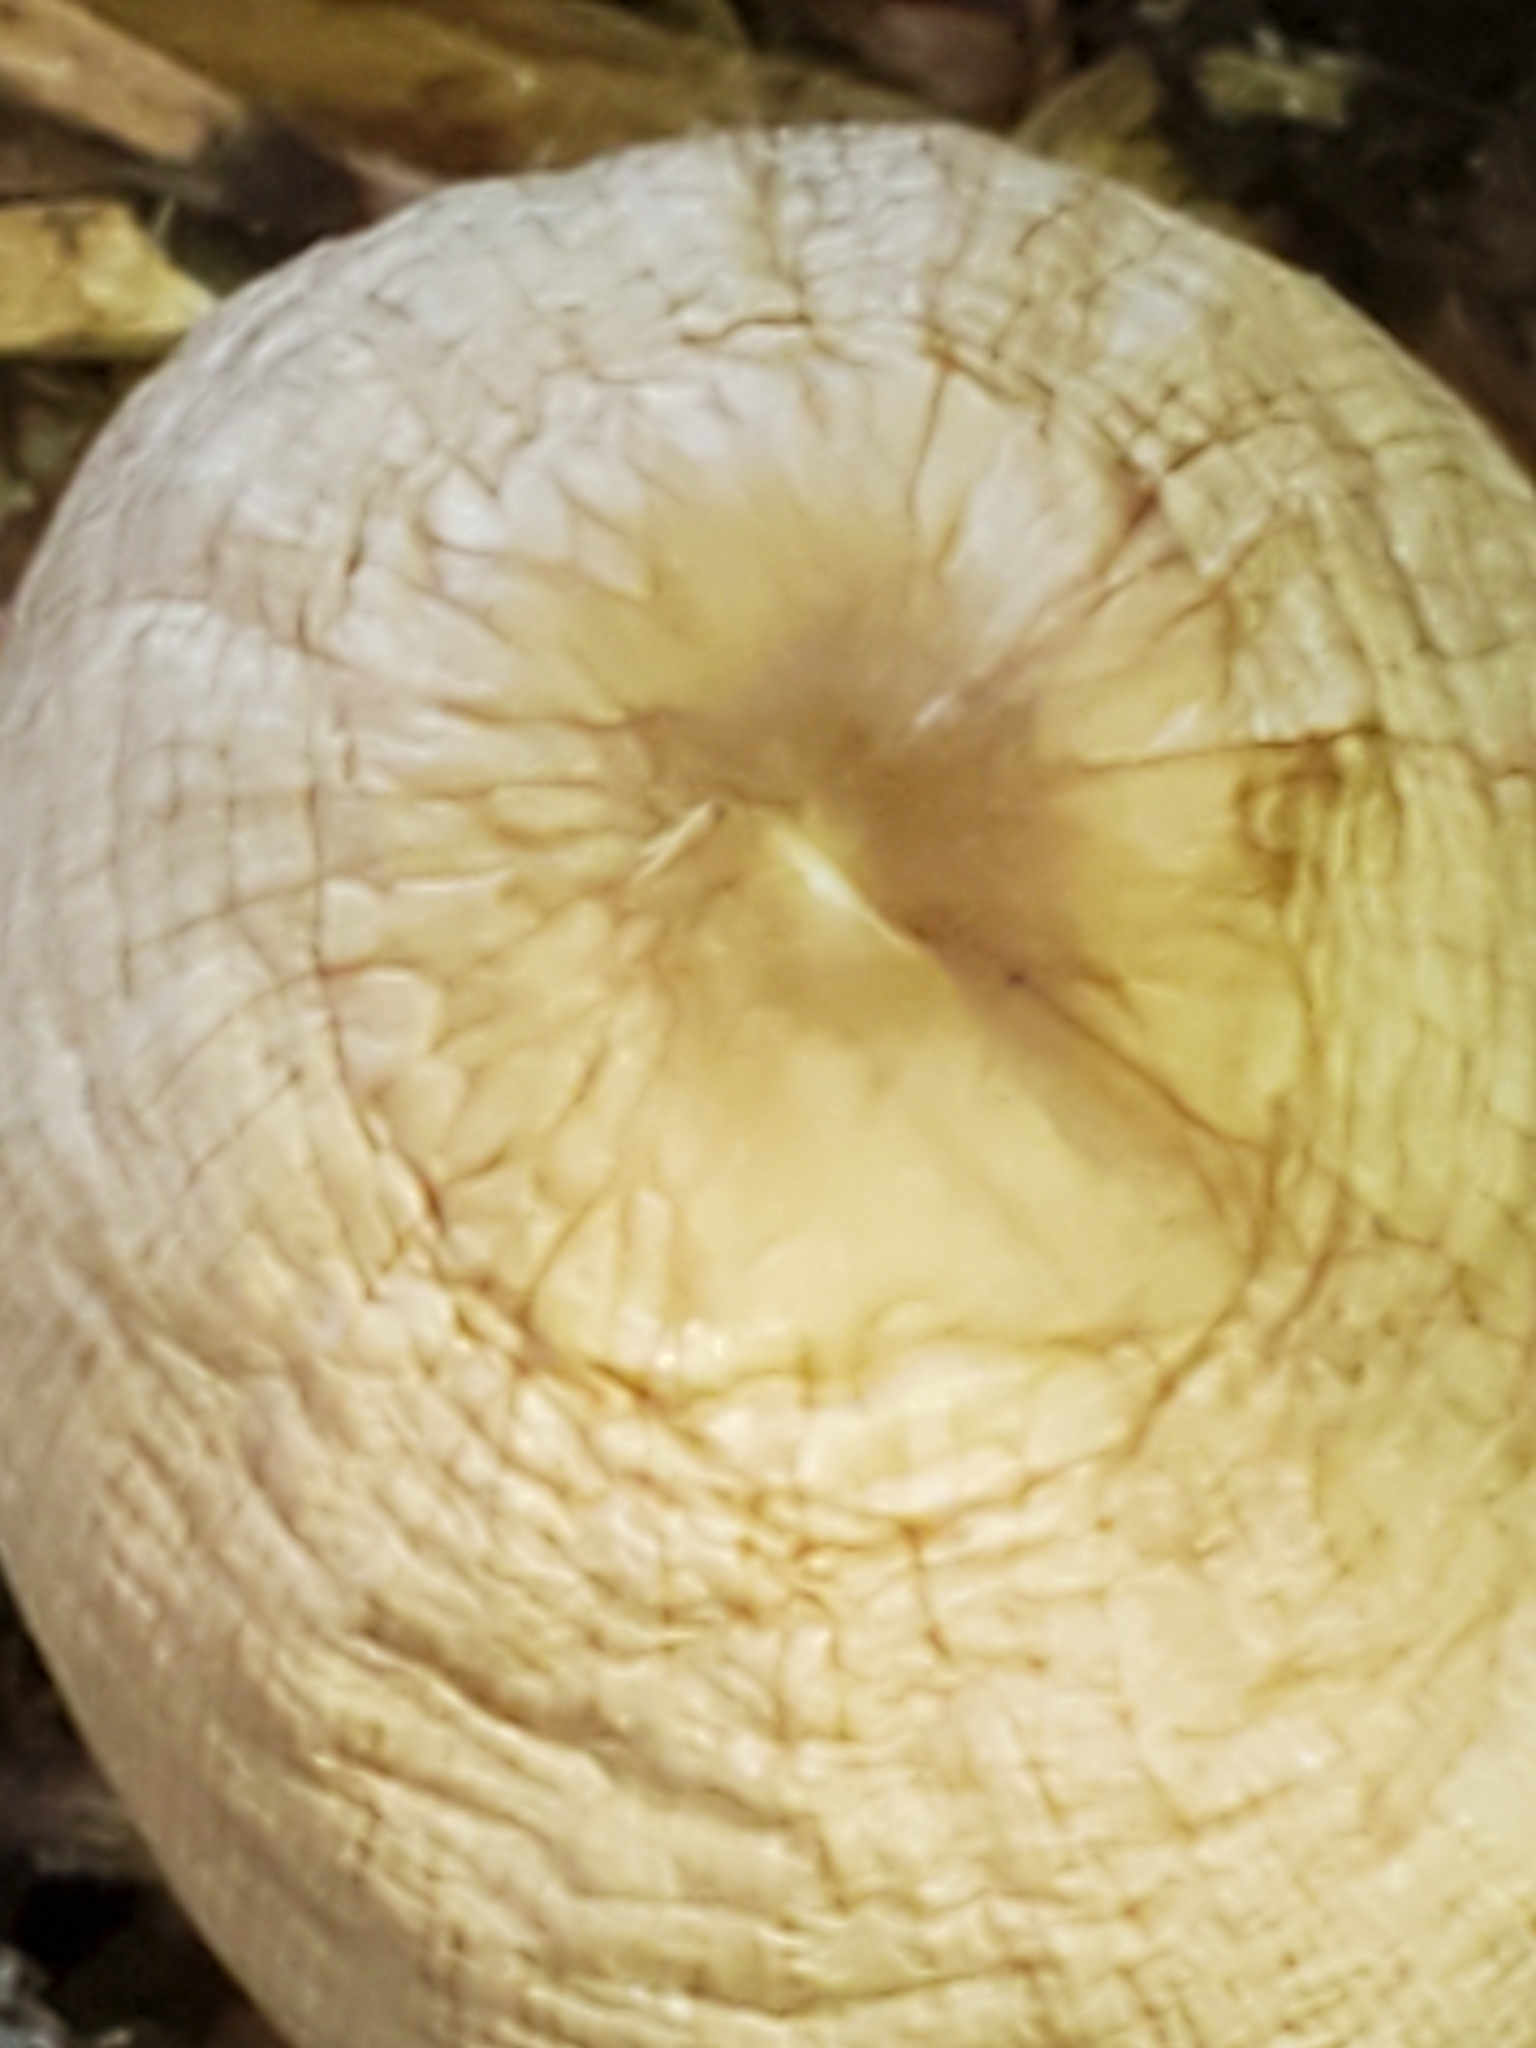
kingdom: Fungi
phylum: Basidiomycota
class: Agaricomycetes
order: Agaricales
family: Bolbitiaceae
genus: Panaeolus
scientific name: Panaeolus antillarum
